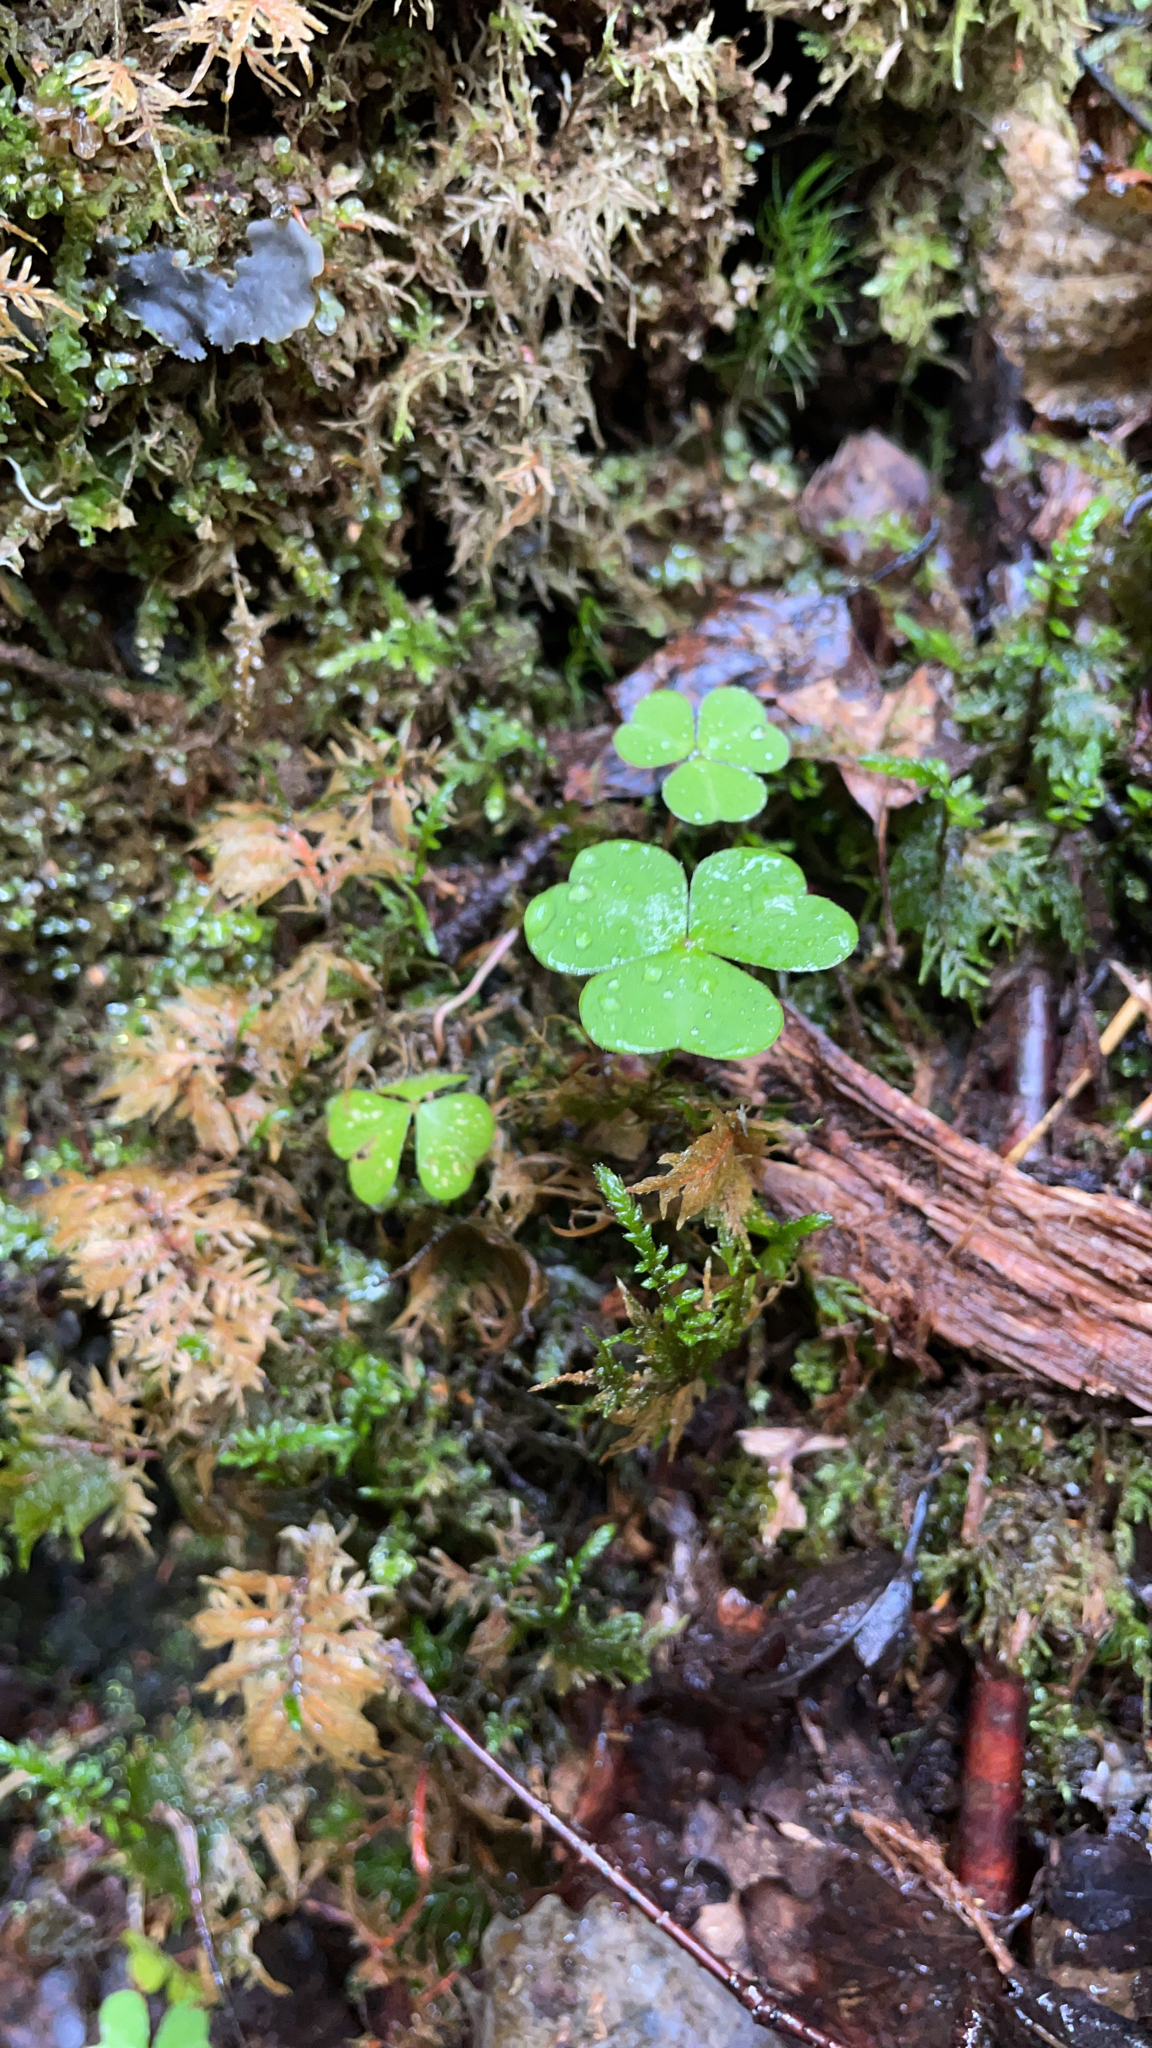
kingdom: Plantae
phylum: Tracheophyta
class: Magnoliopsida
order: Oxalidales
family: Oxalidaceae
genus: Oxalis
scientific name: Oxalis acetosella
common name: Wood-sorrel
